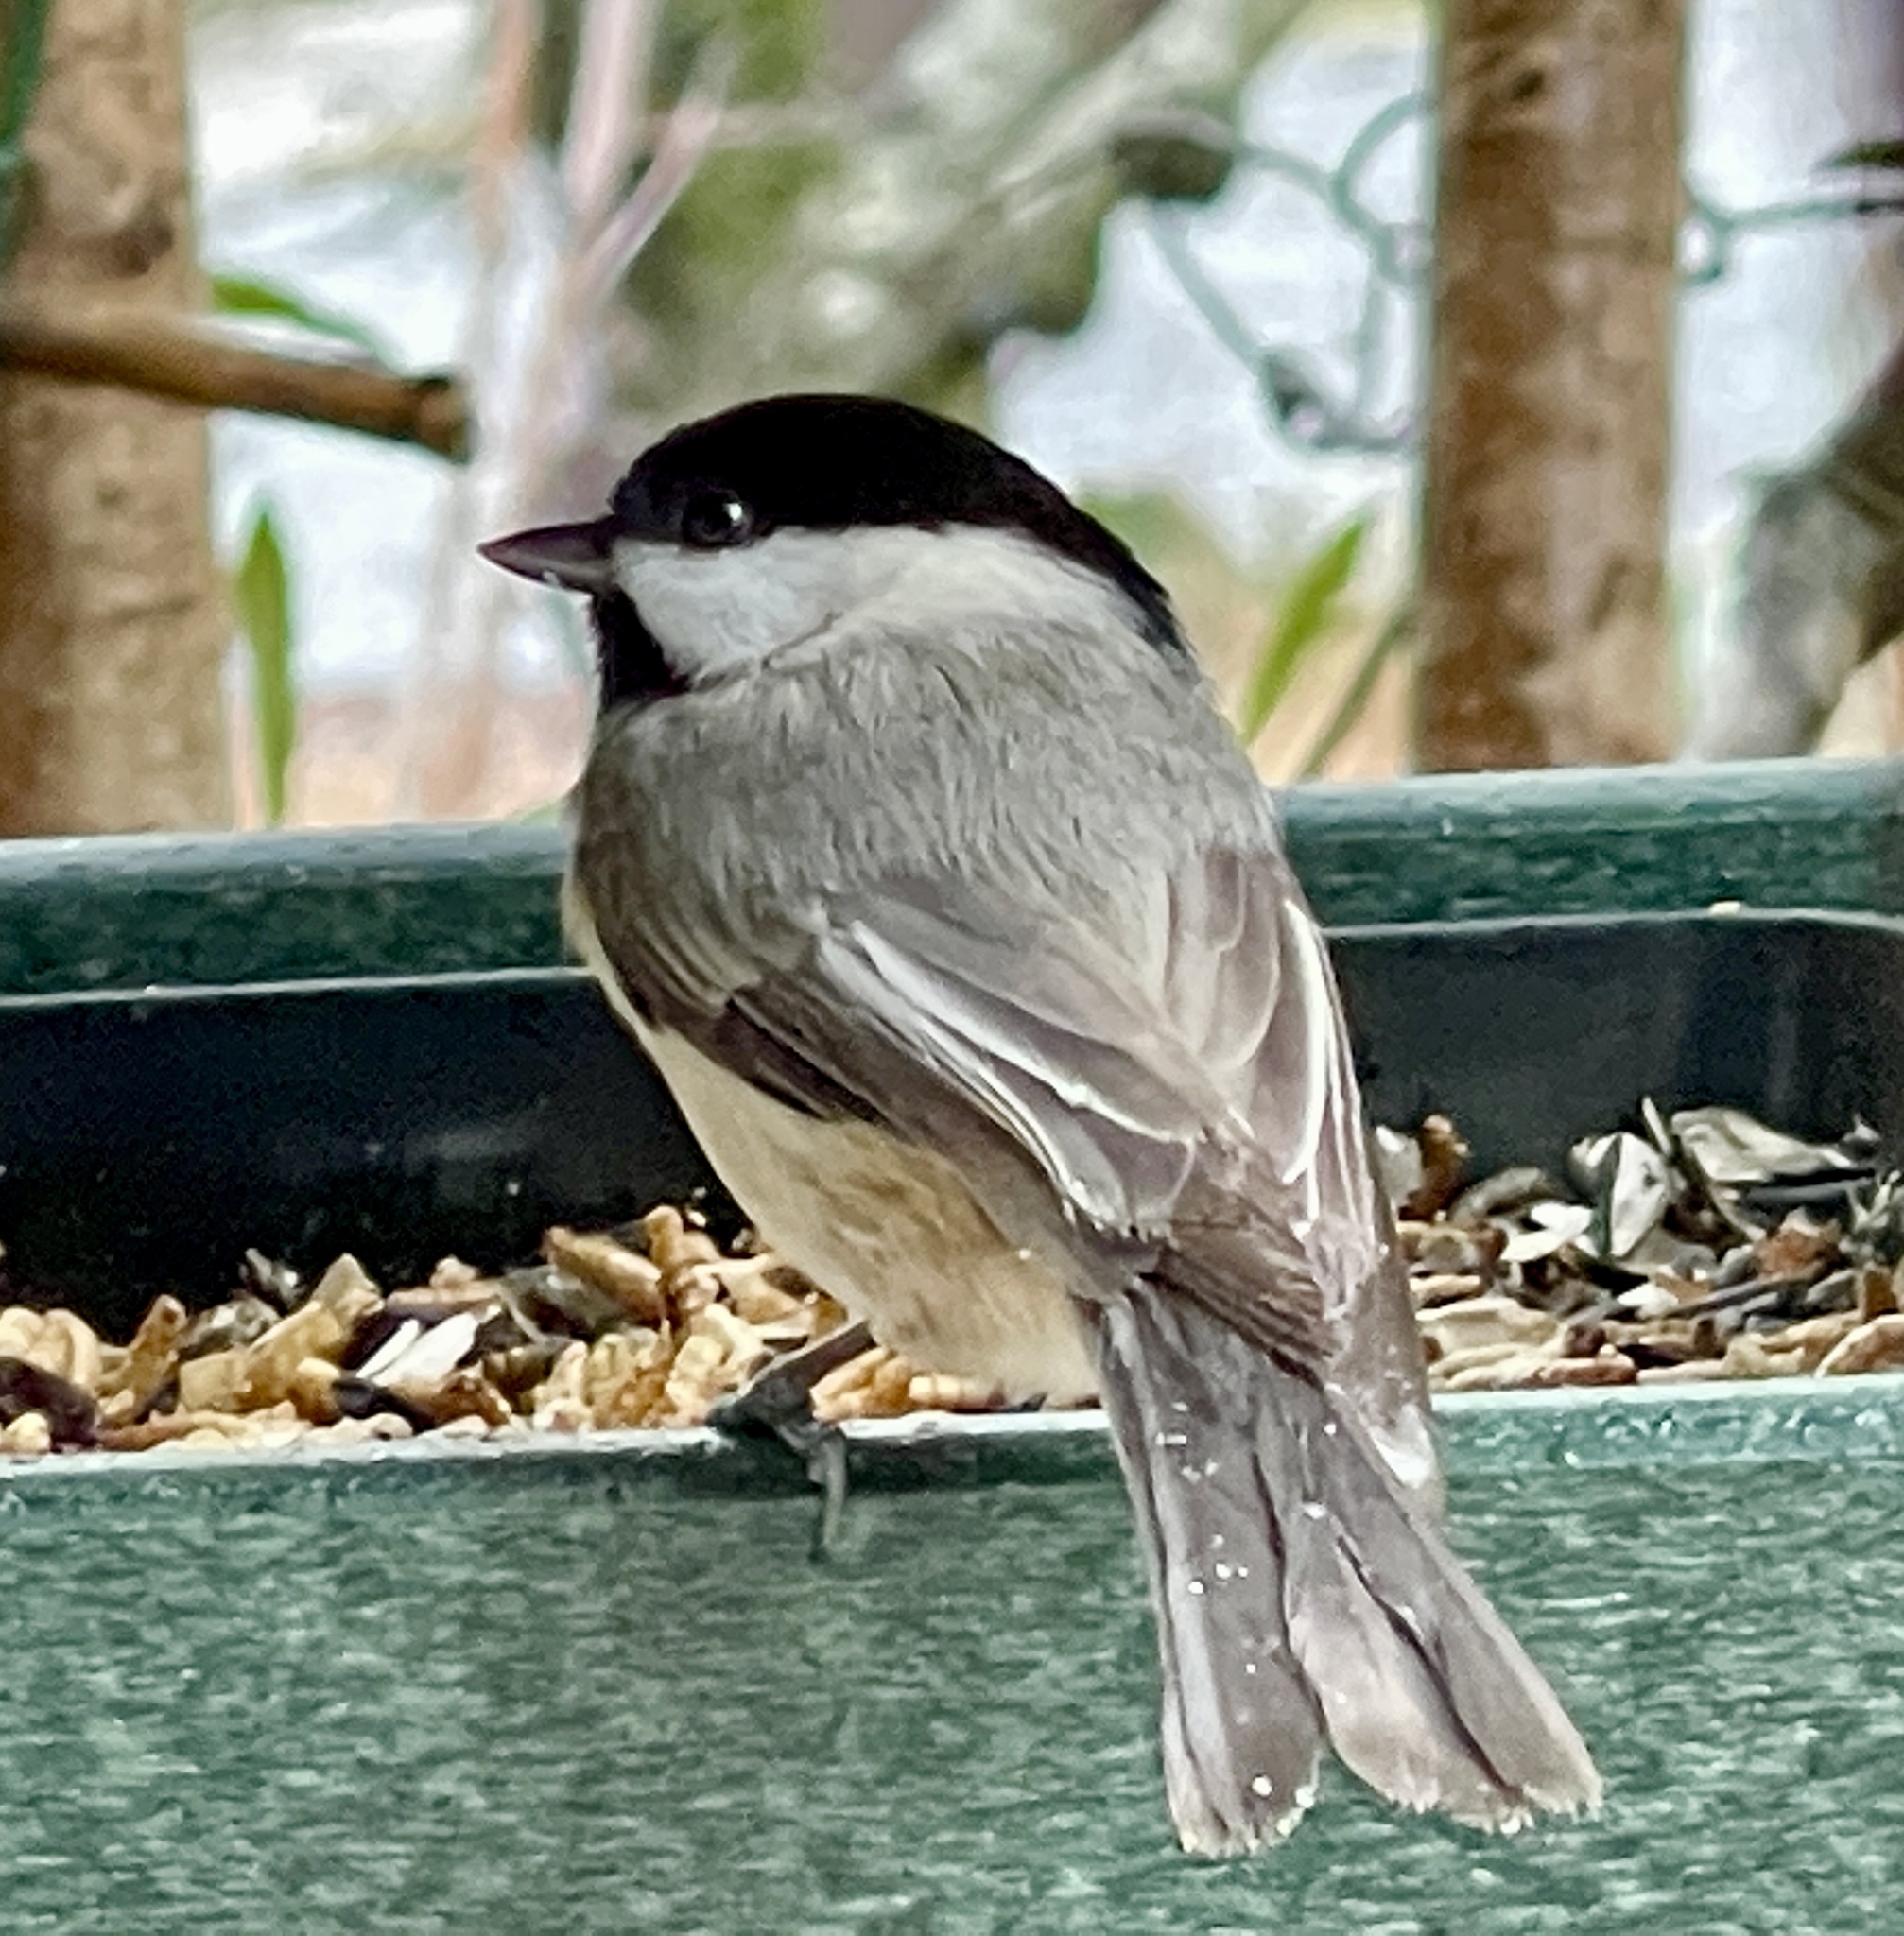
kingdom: Animalia
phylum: Chordata
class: Aves
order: Passeriformes
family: Paridae
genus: Poecile
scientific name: Poecile carolinensis
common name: Carolina chickadee
